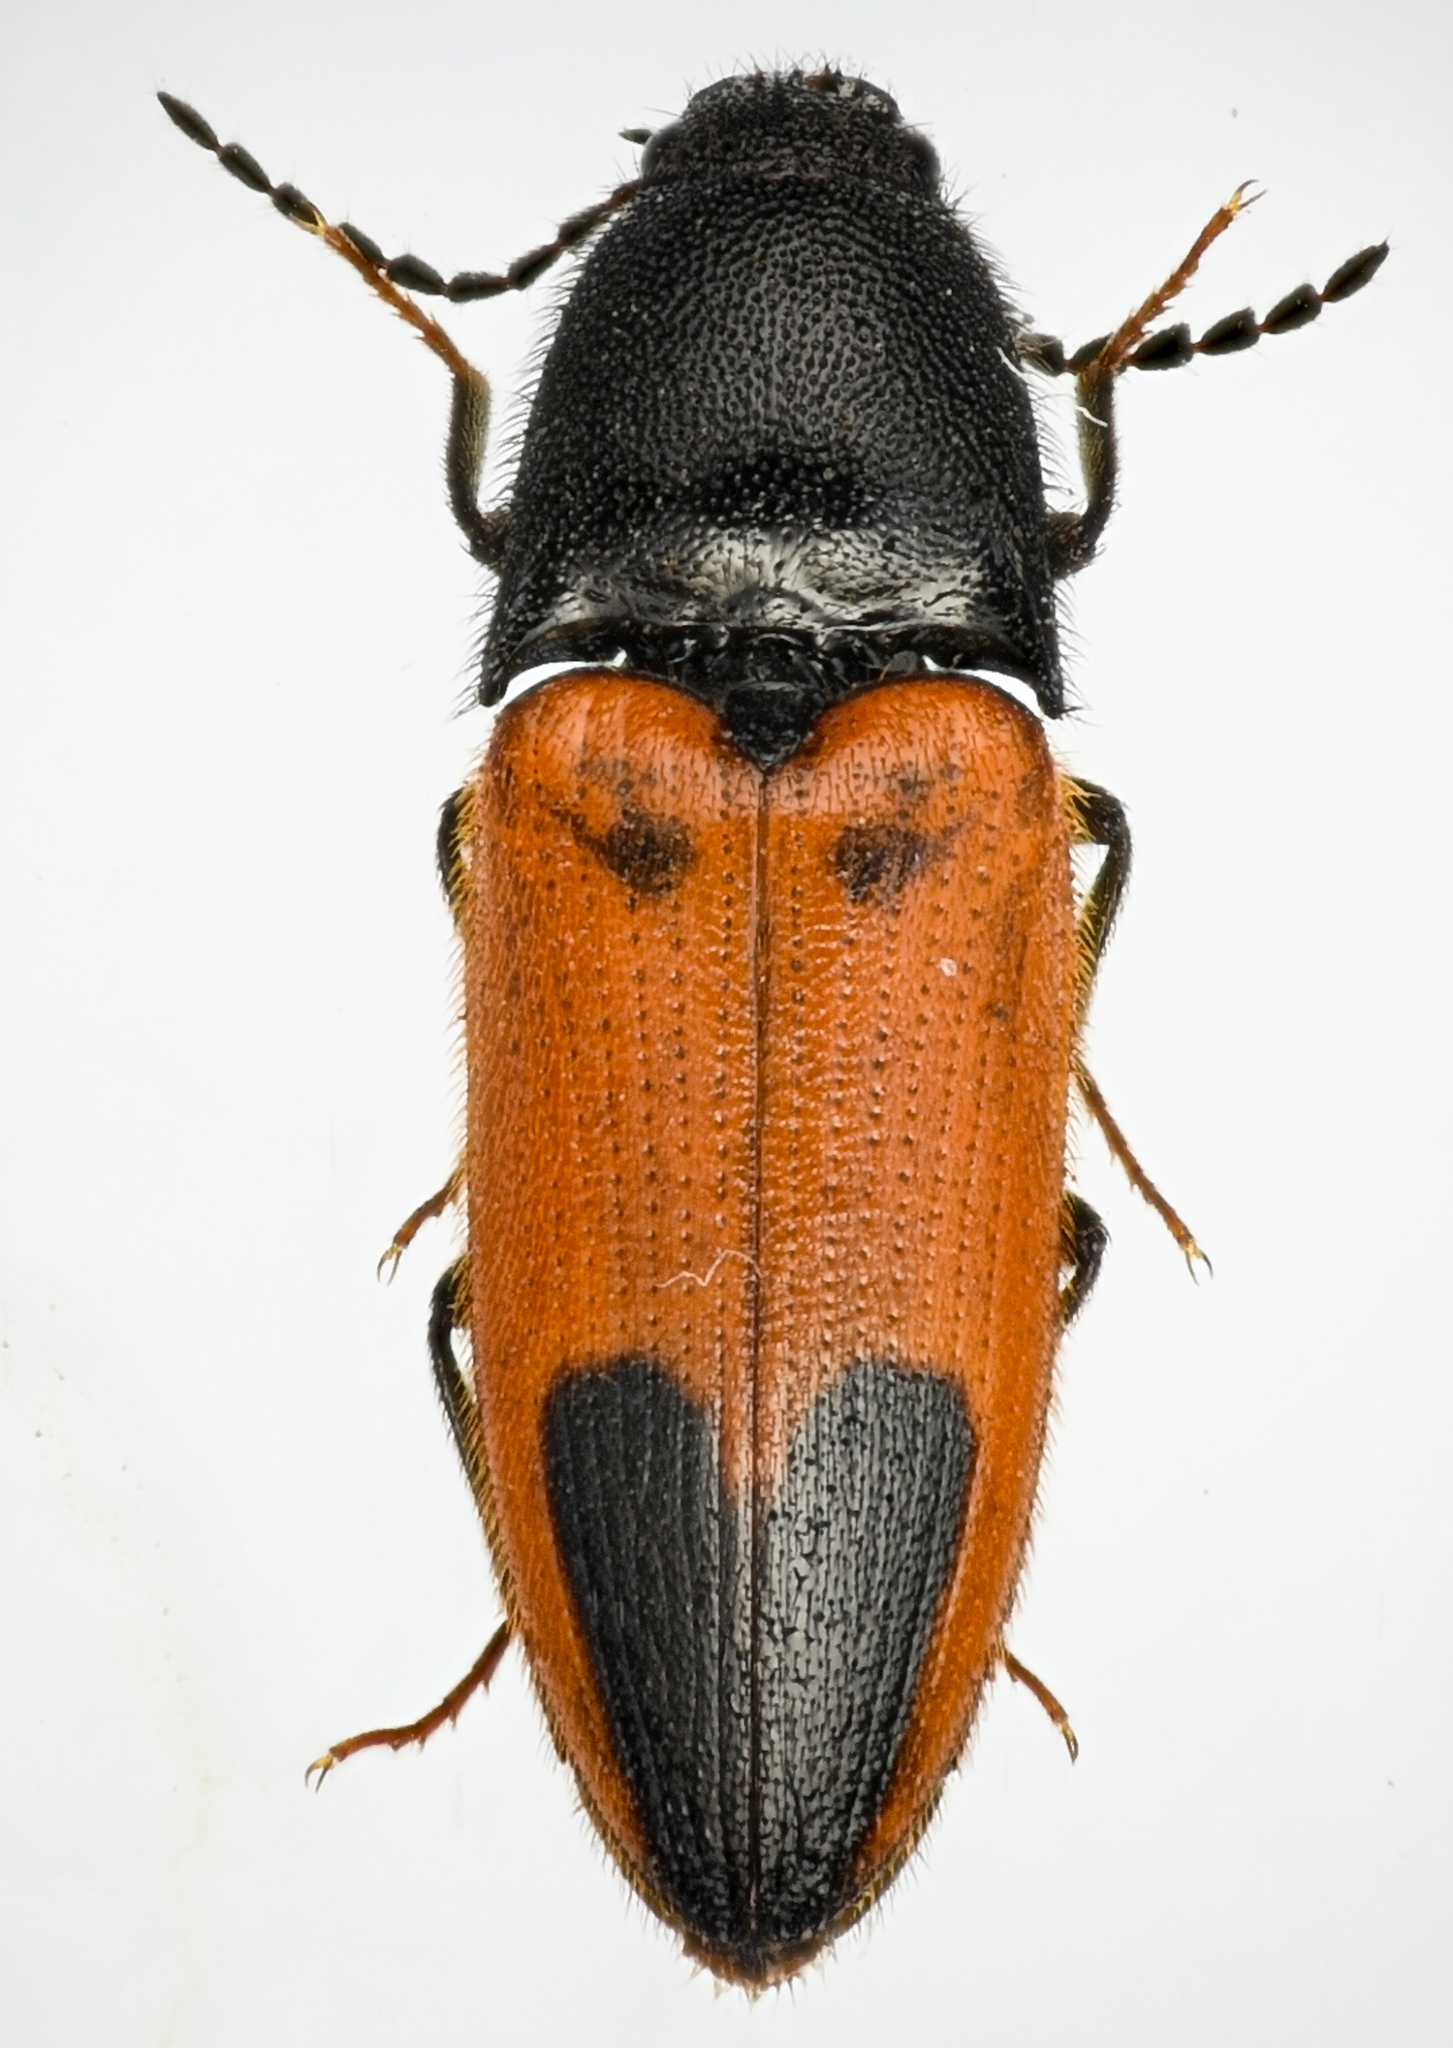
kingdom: Animalia
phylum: Arthropoda
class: Insecta
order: Coleoptera
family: Elateridae
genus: Ampedus
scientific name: Ampedus
